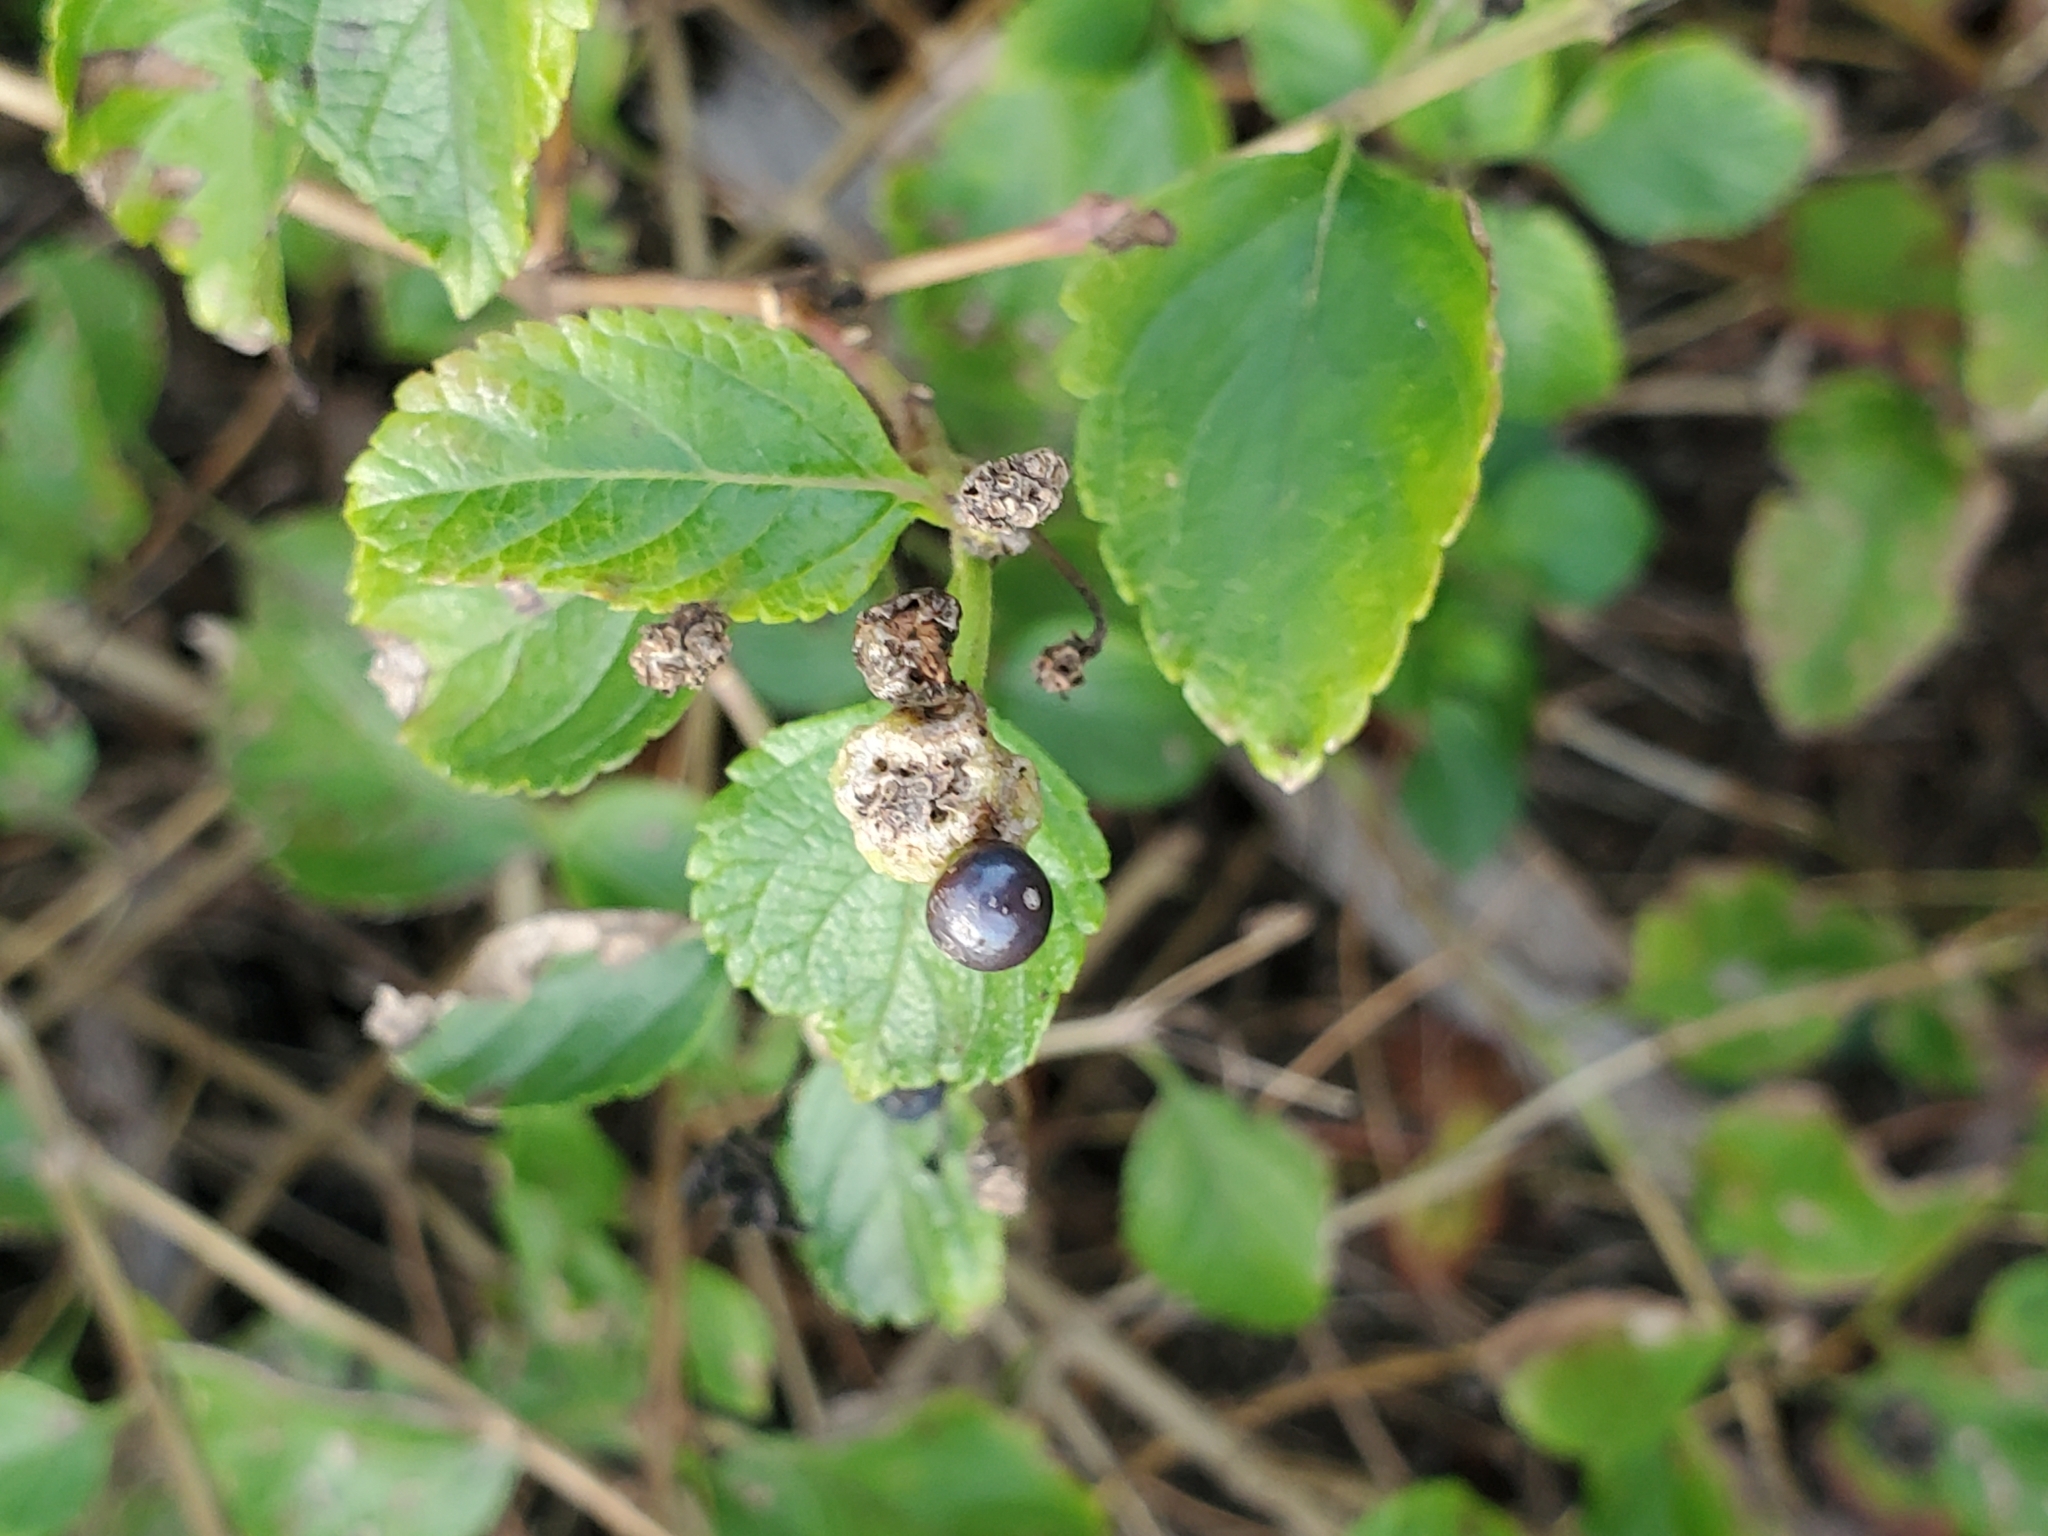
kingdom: Plantae
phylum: Tracheophyta
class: Magnoliopsida
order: Lamiales
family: Verbenaceae
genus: Lantana
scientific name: Lantana strigocamara
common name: Lantana
